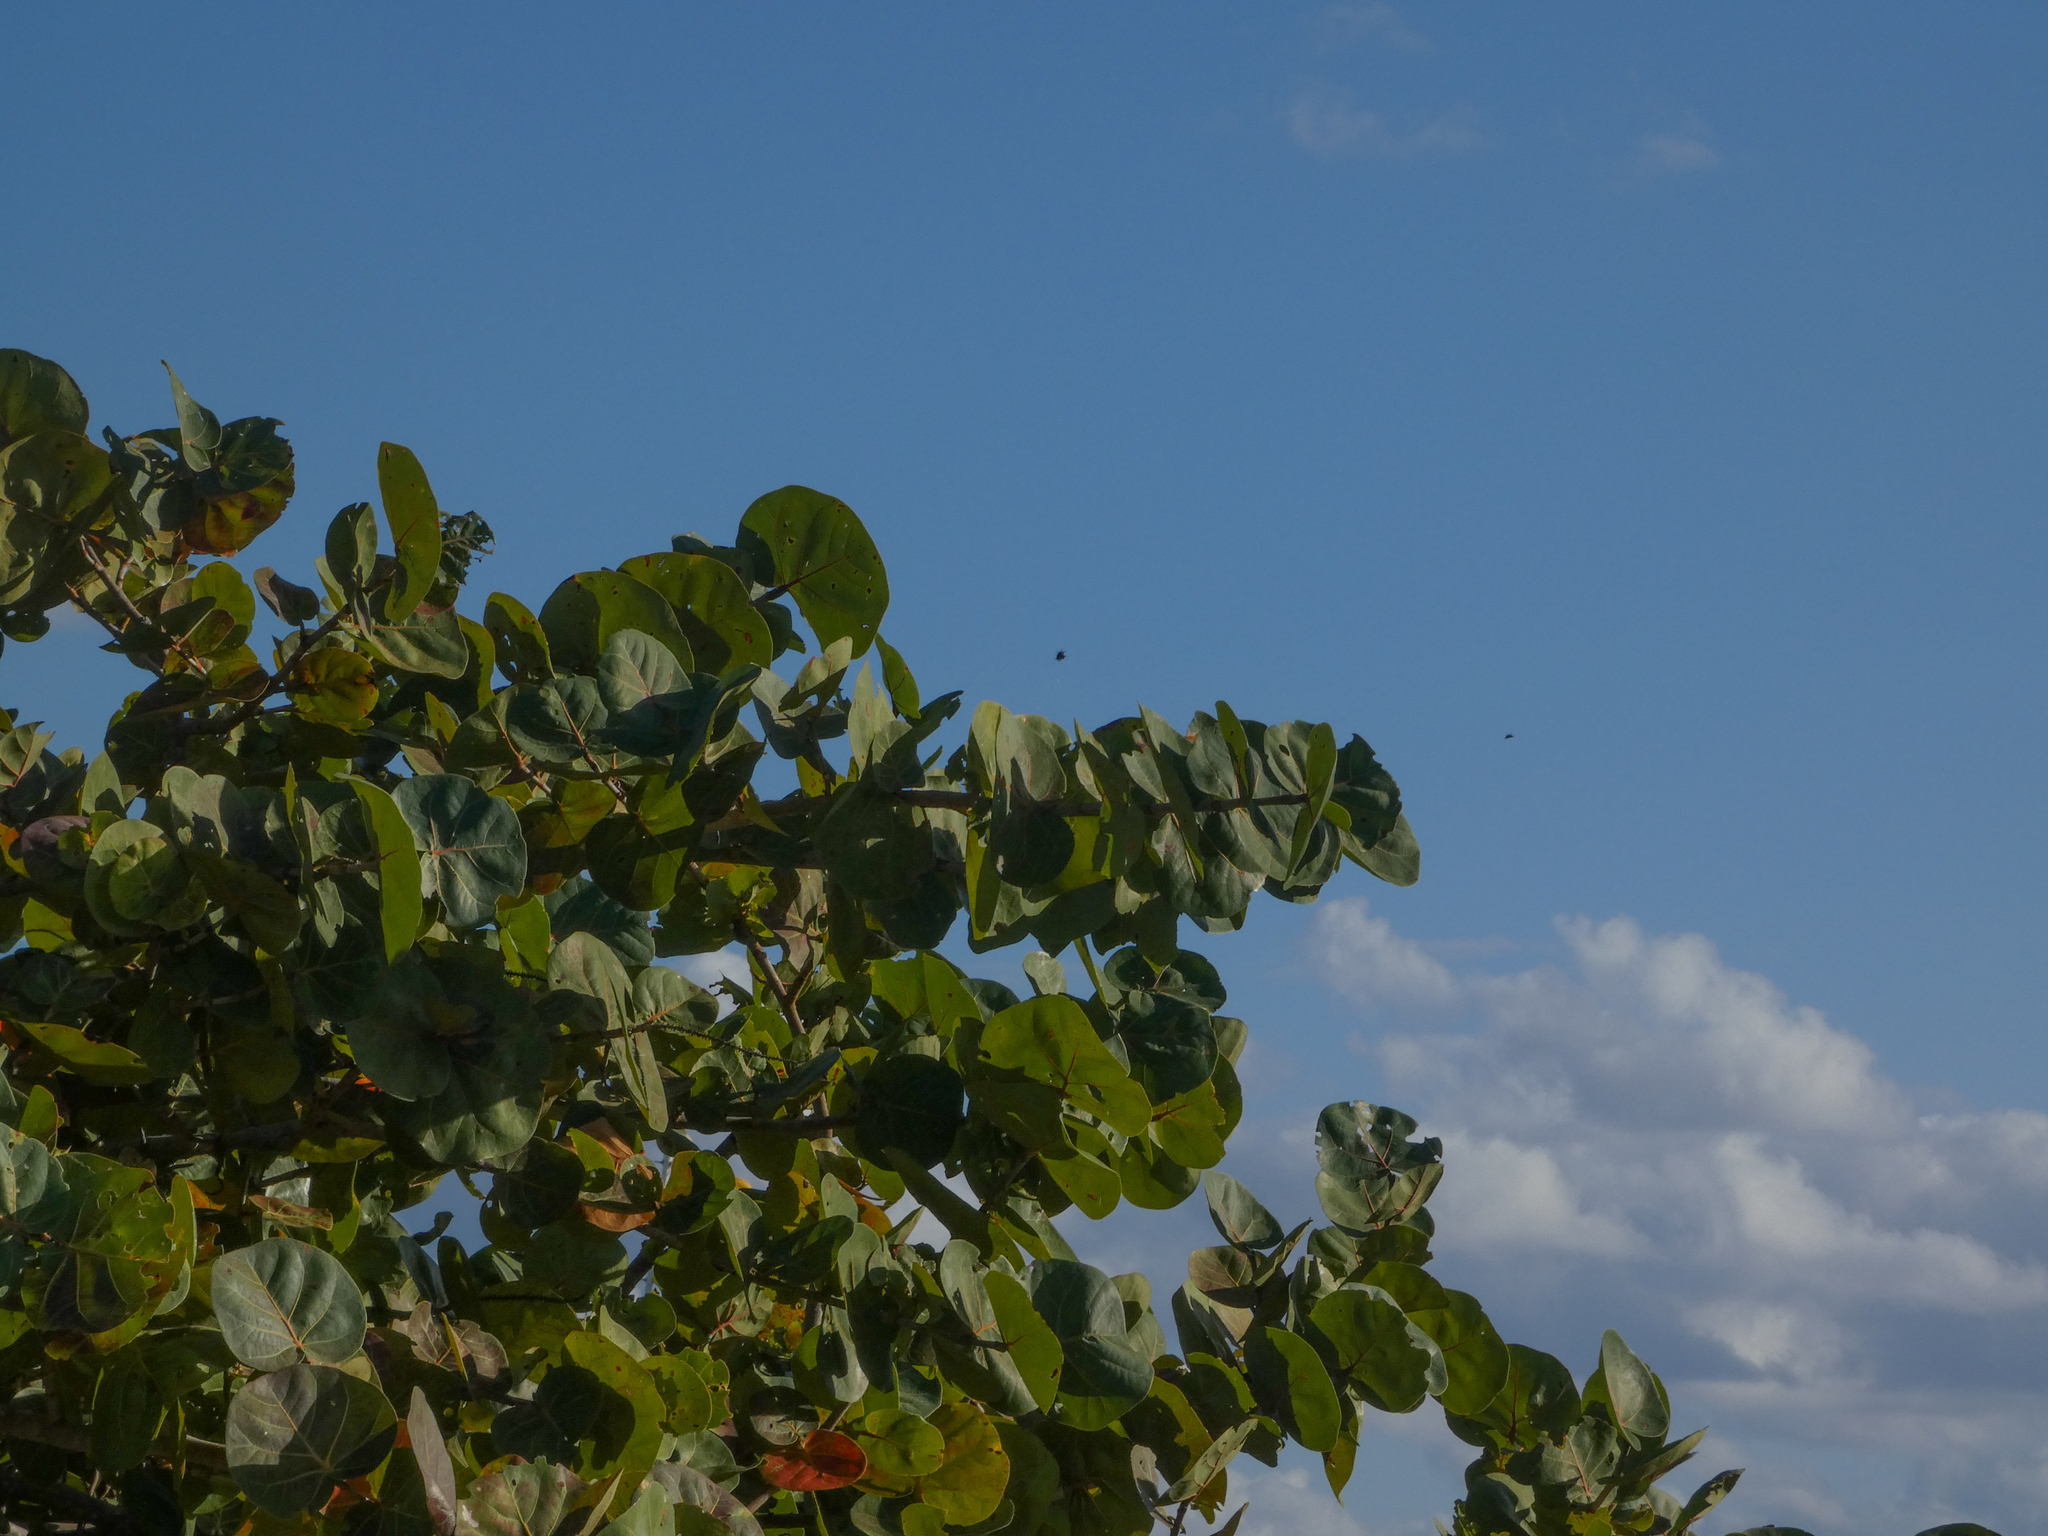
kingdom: Plantae
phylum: Tracheophyta
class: Magnoliopsida
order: Caryophyllales
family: Polygonaceae
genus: Coccoloba
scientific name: Coccoloba uvifera
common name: Seagrape
